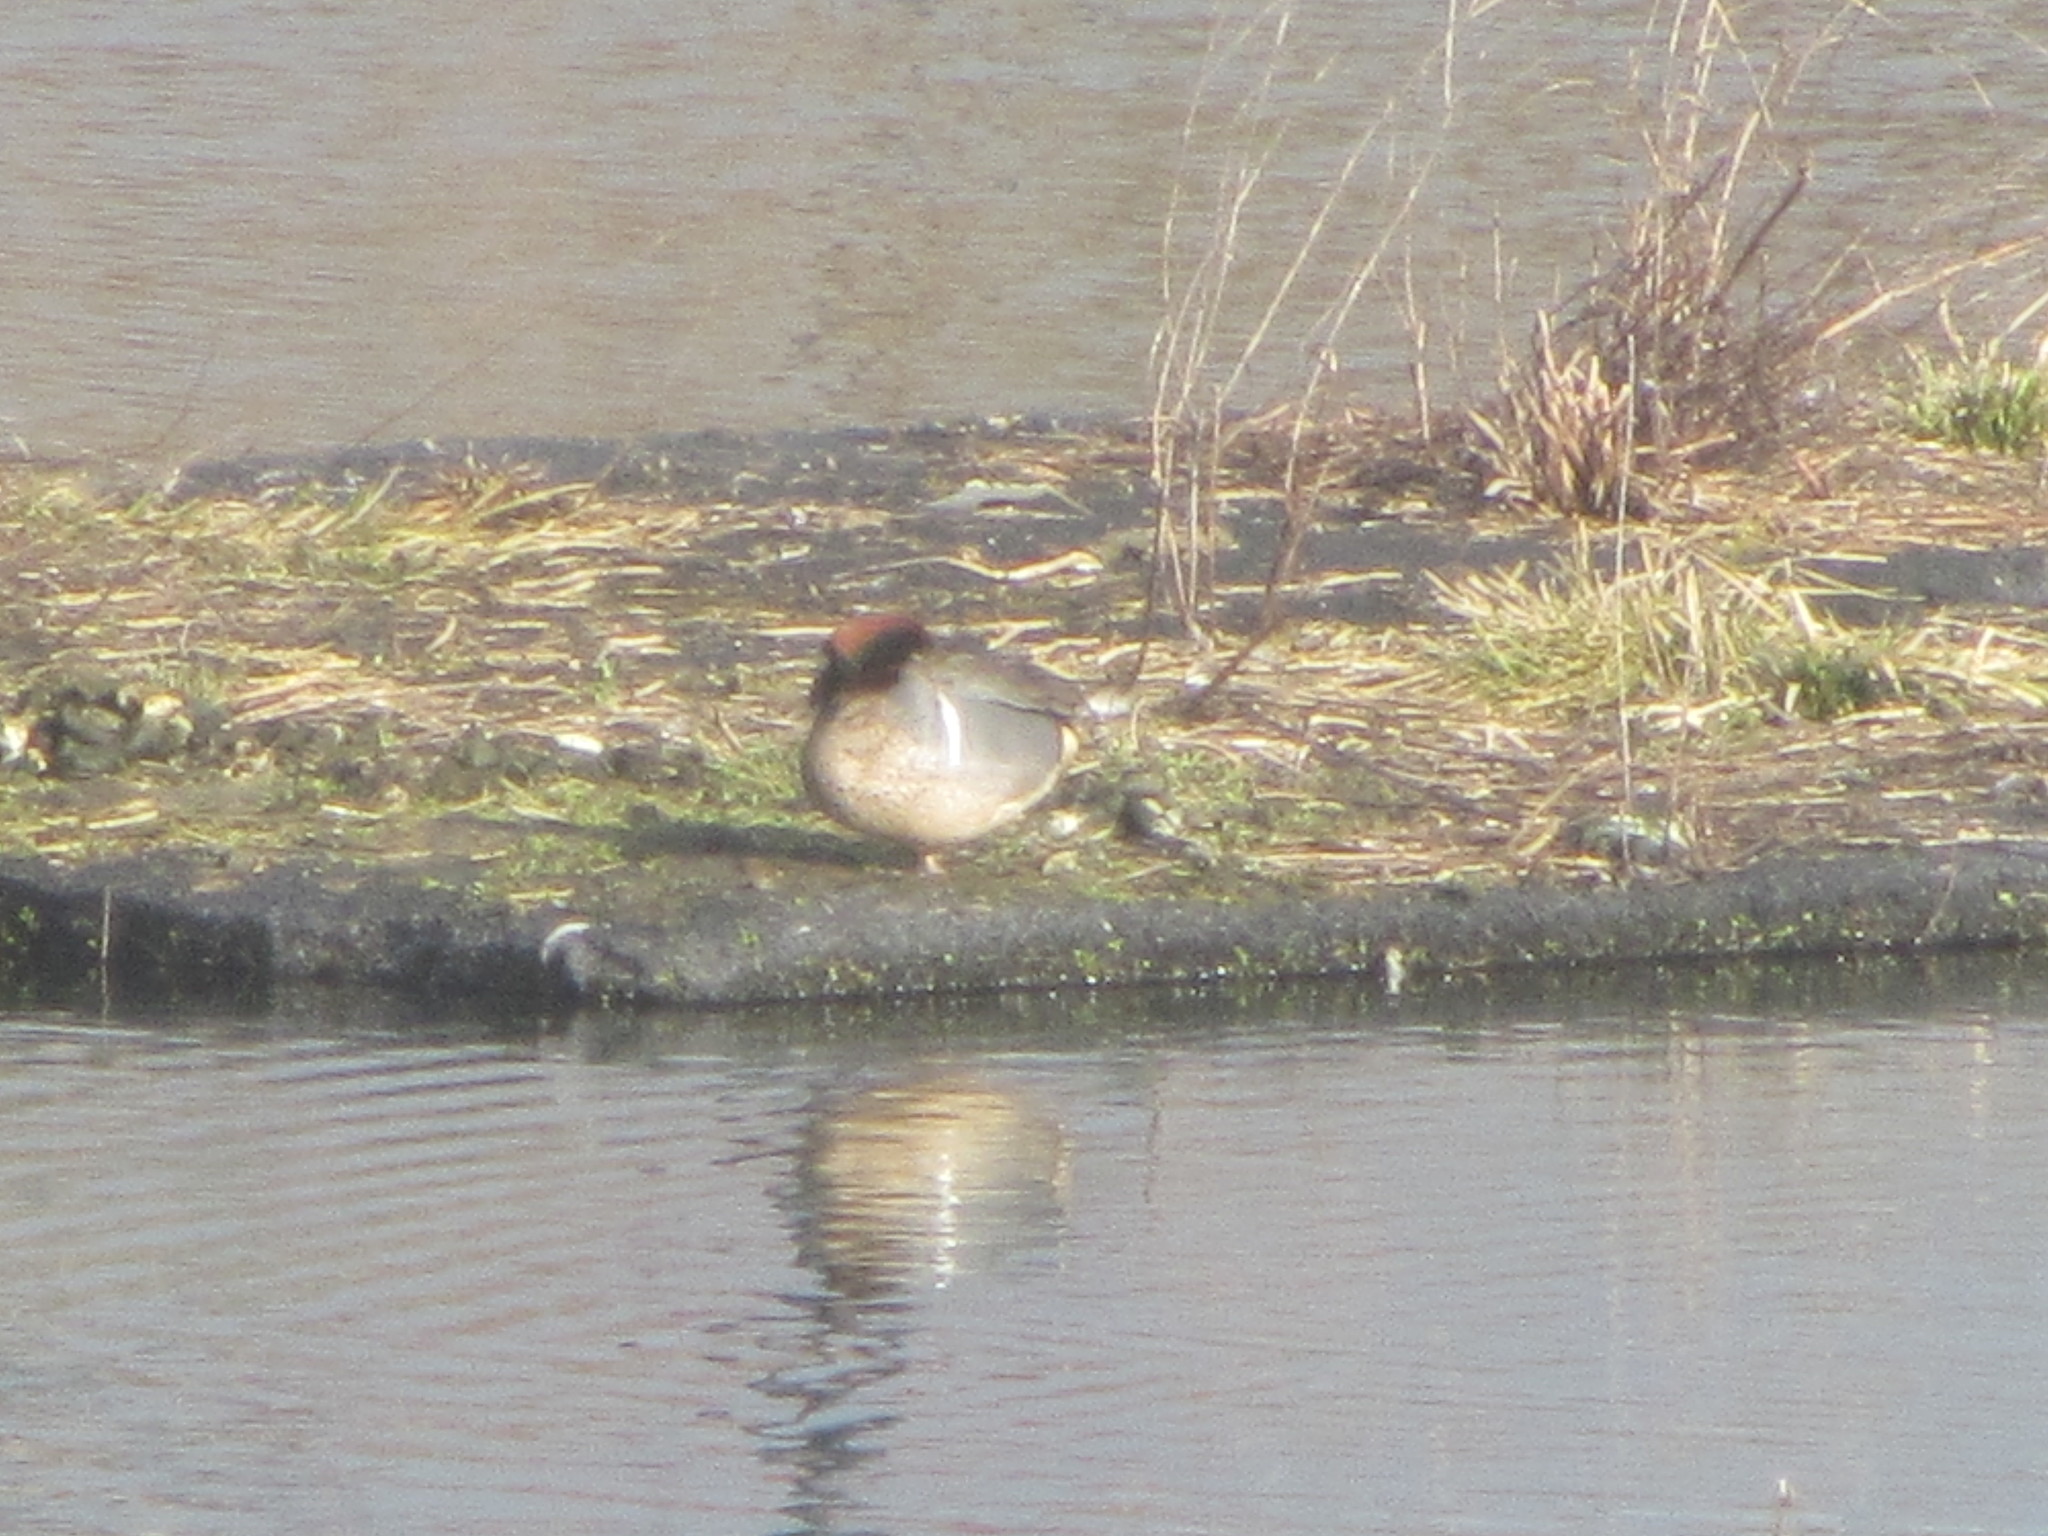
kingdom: Animalia
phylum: Chordata
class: Aves
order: Anseriformes
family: Anatidae
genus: Anas
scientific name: Anas crecca
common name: Eurasian teal
